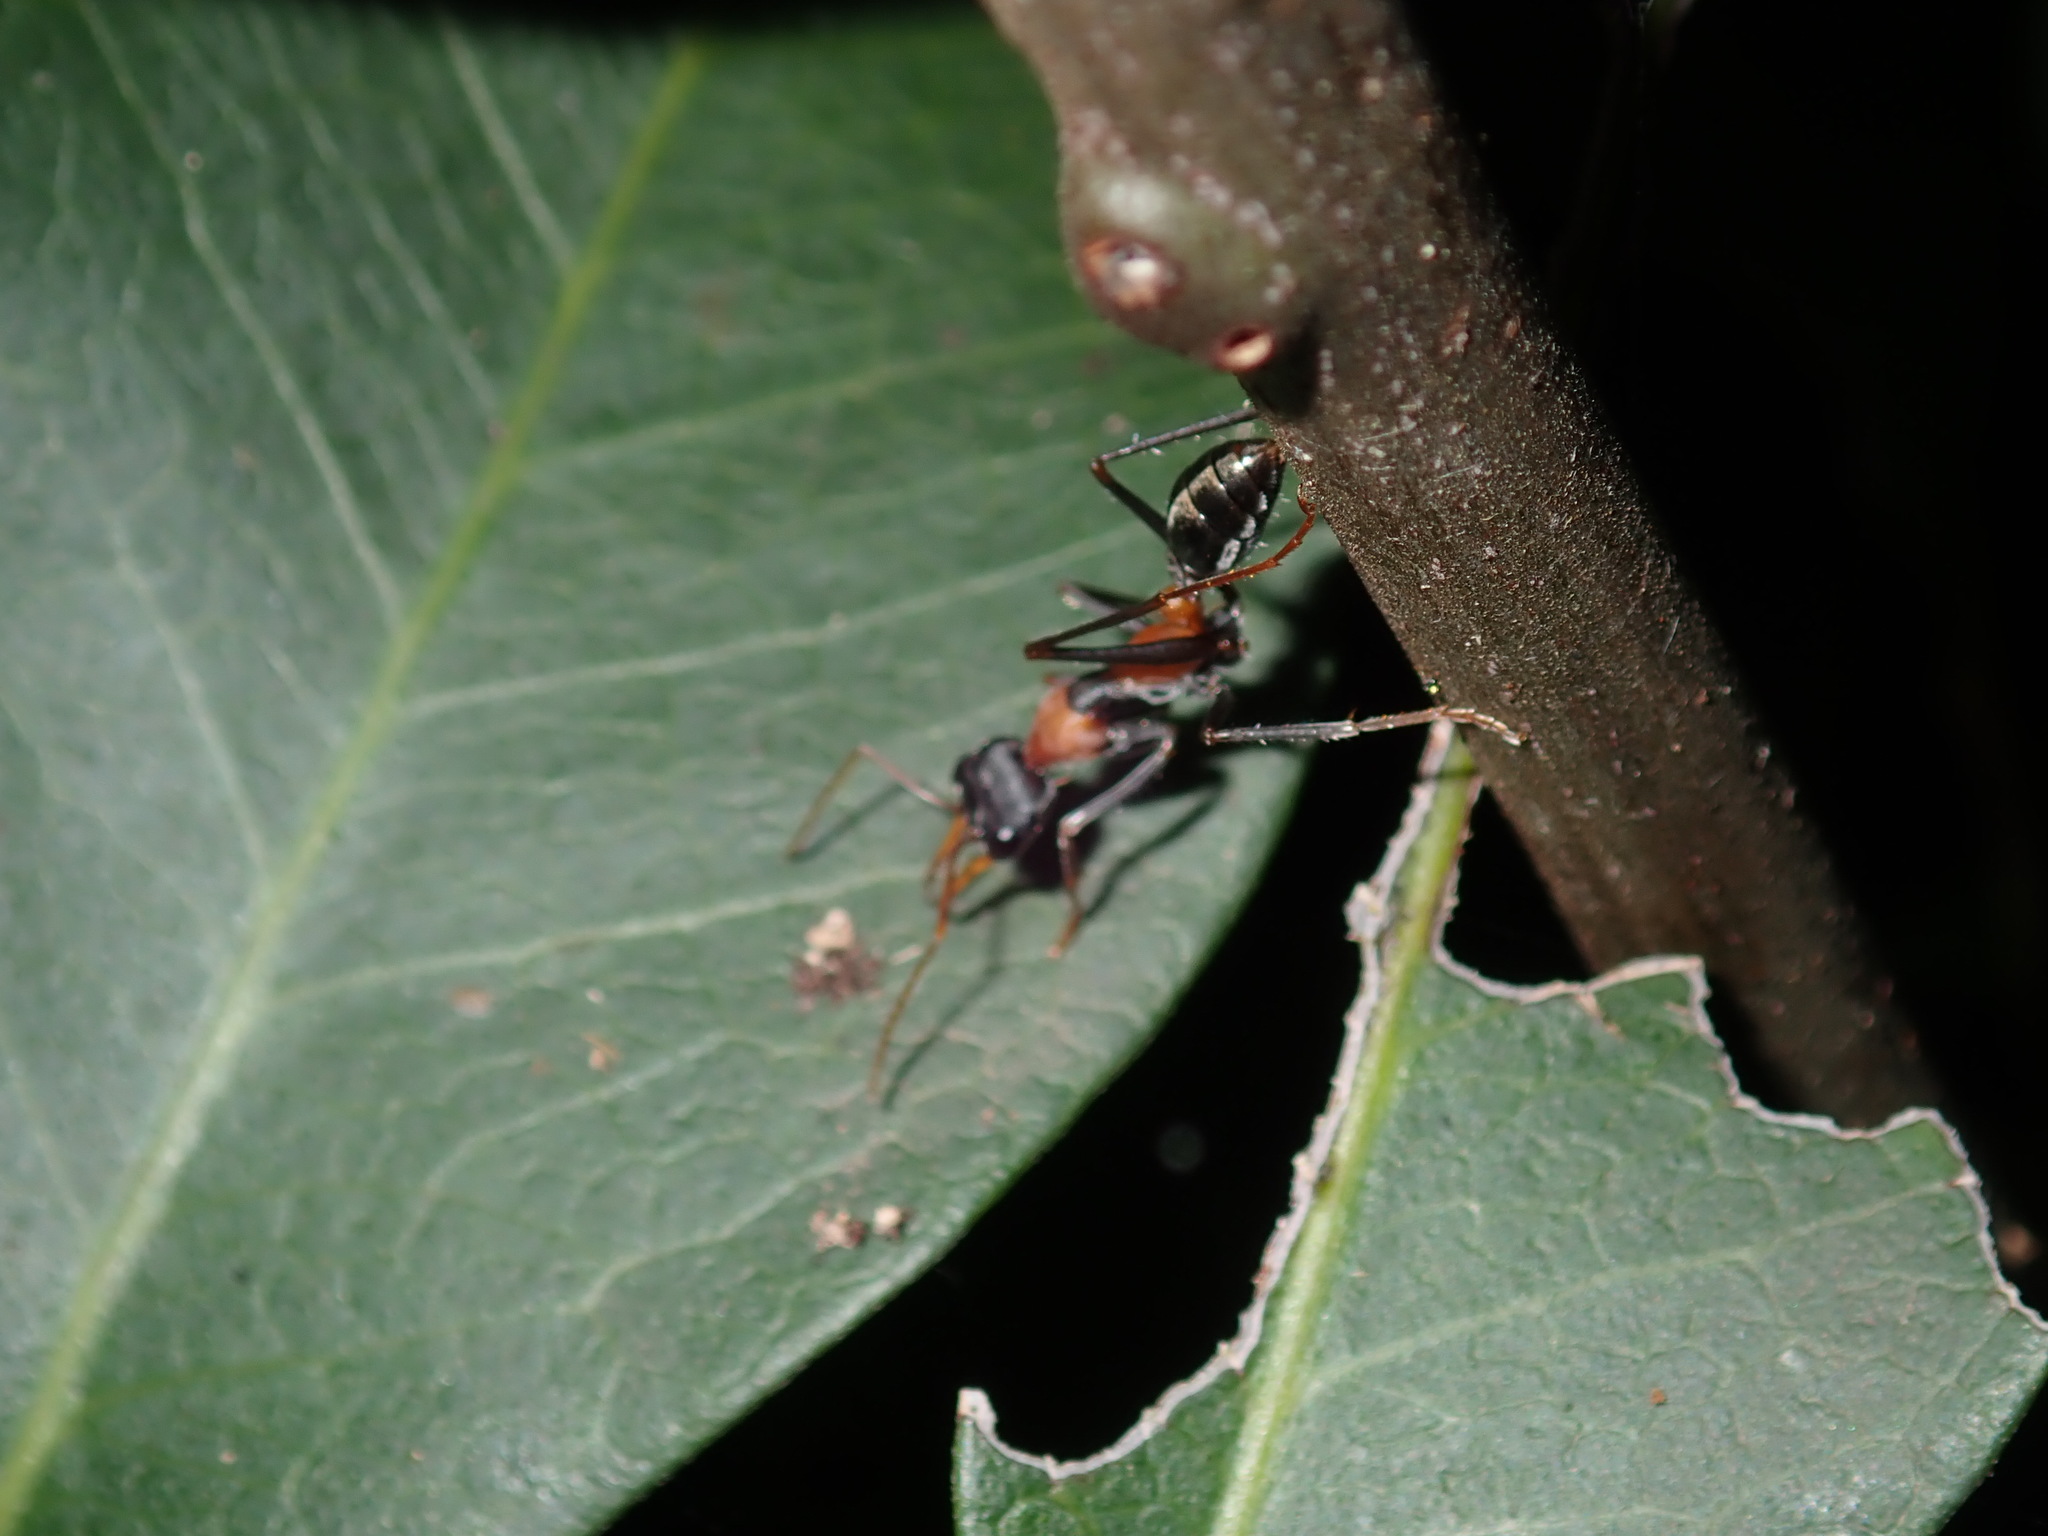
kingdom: Animalia
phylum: Arthropoda
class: Insecta
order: Hymenoptera
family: Formicidae
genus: Myrmecia
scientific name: Myrmecia nigrocincta
